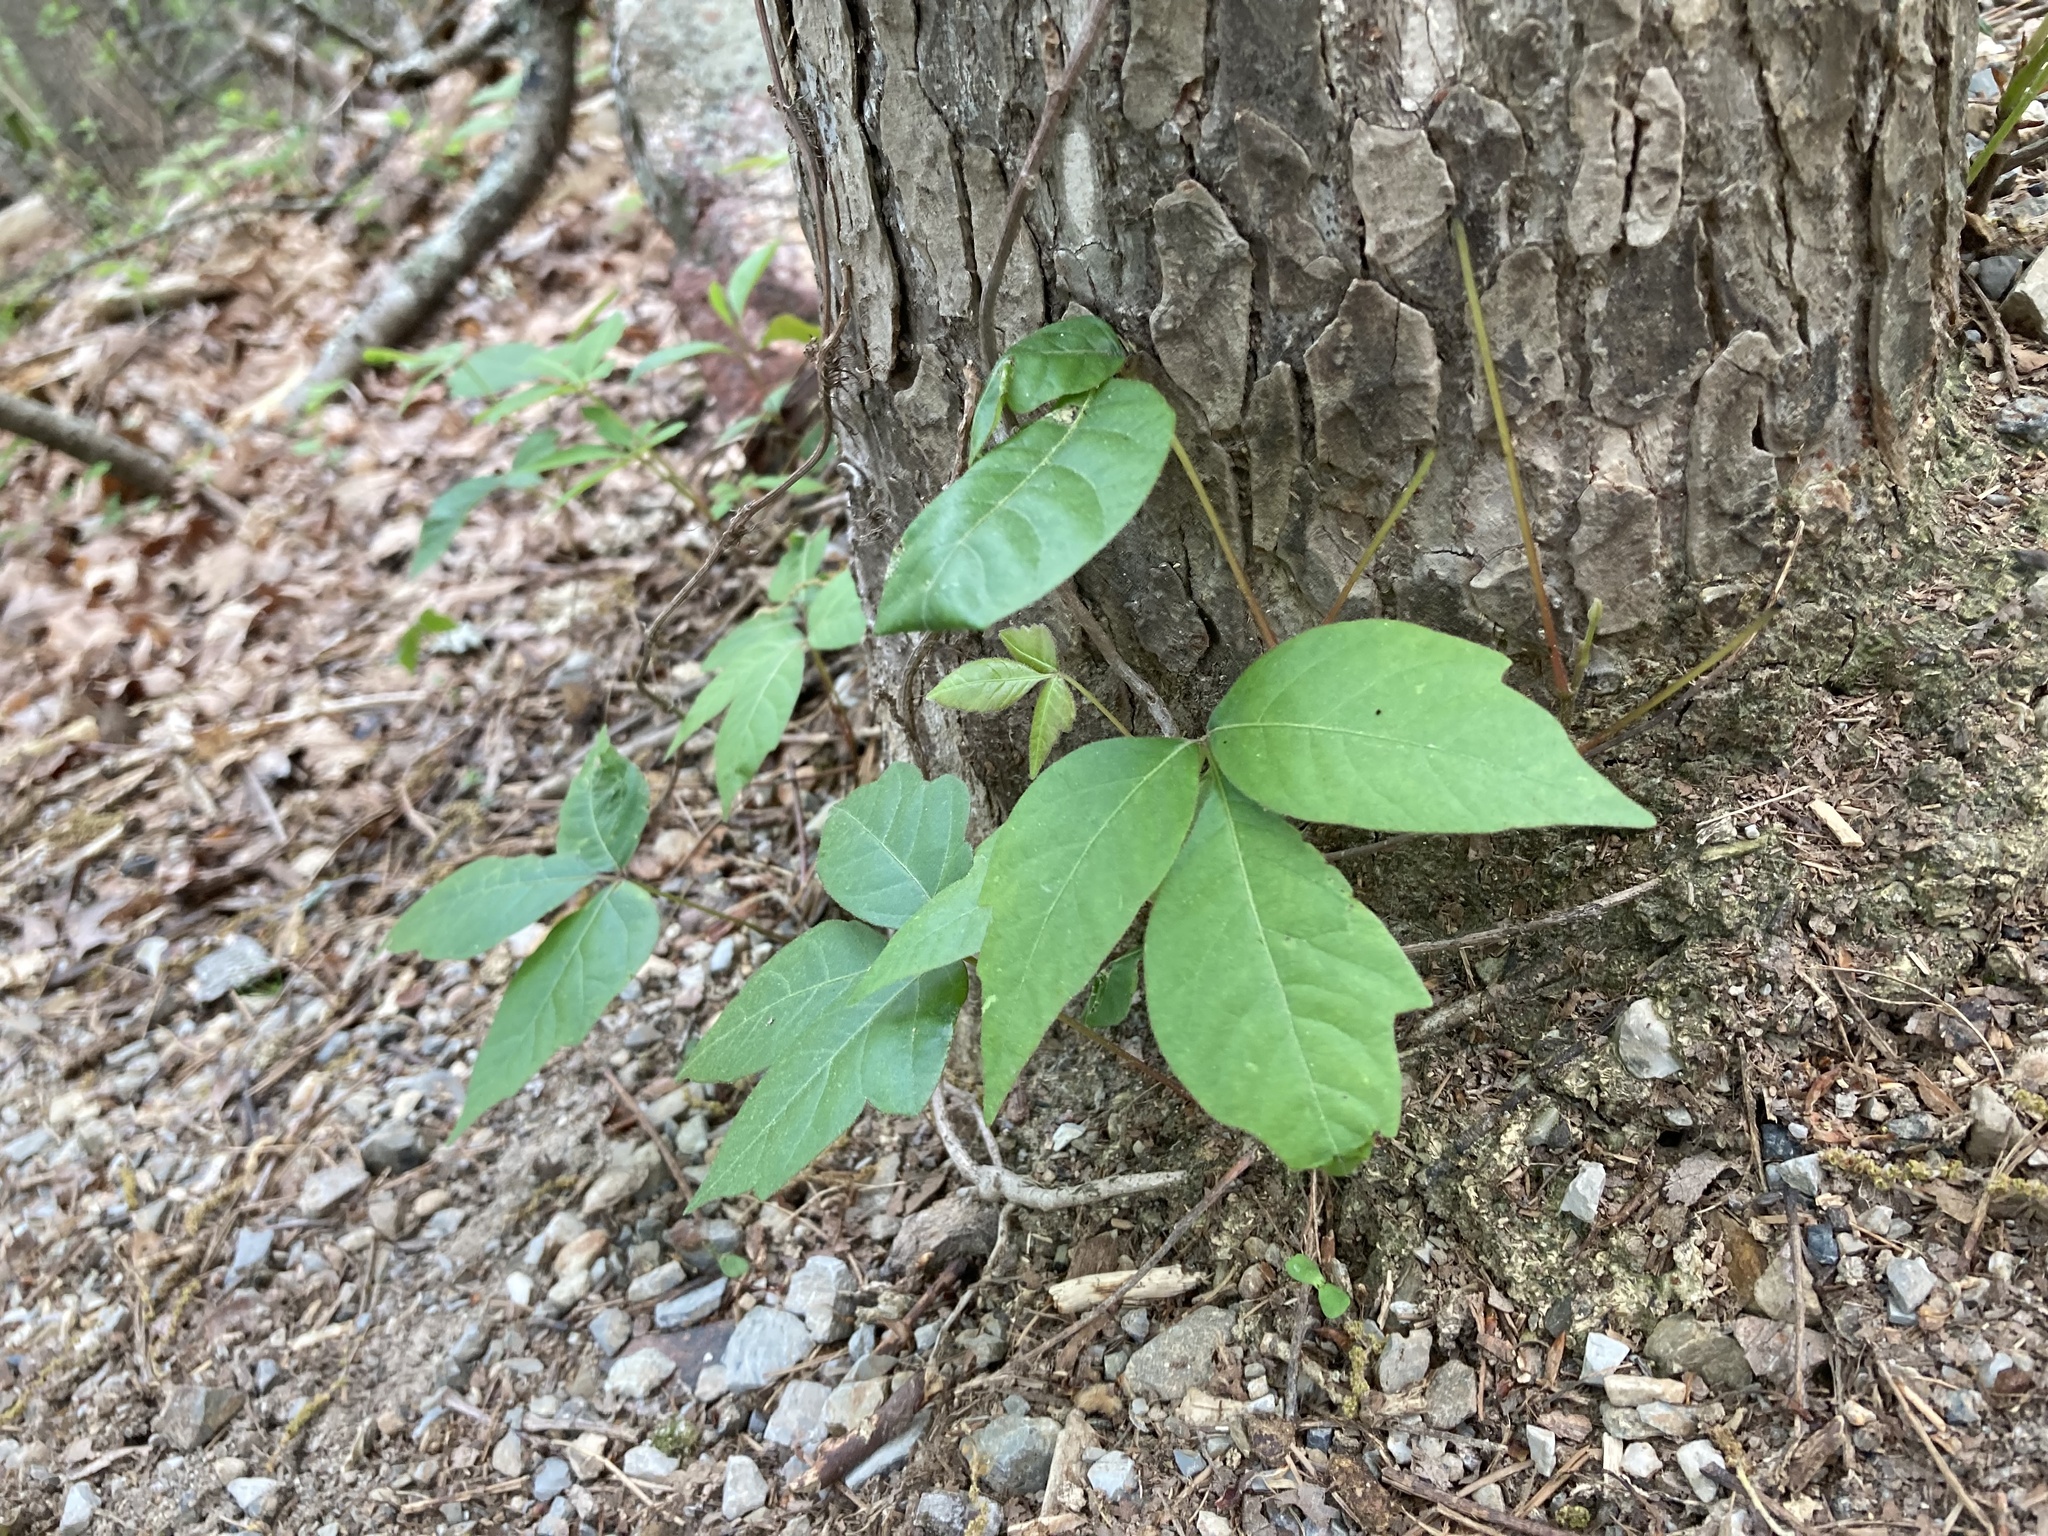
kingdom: Plantae
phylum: Tracheophyta
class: Magnoliopsida
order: Sapindales
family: Anacardiaceae
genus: Toxicodendron
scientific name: Toxicodendron radicans
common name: Poison ivy
